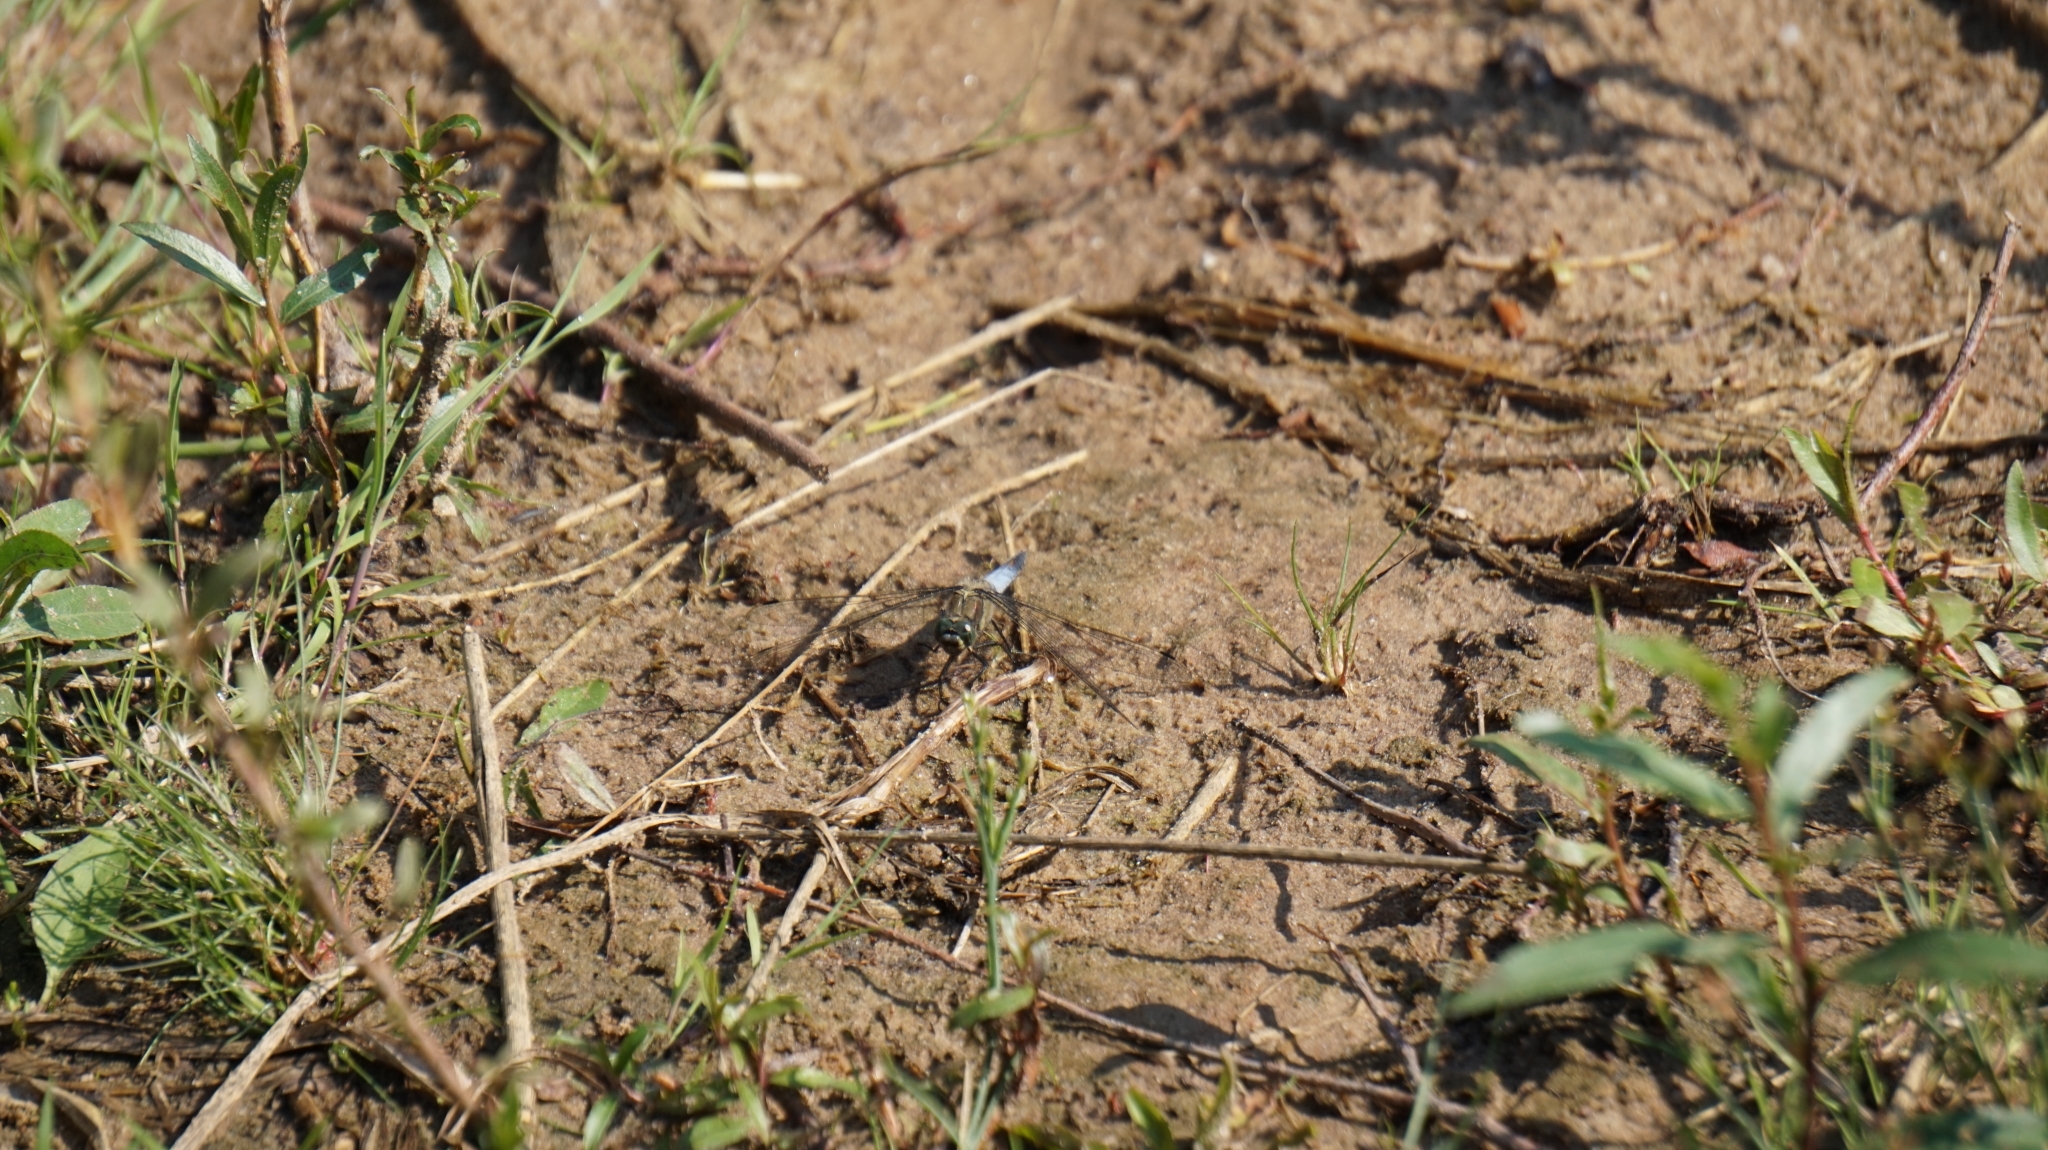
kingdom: Animalia
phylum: Arthropoda
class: Insecta
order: Odonata
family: Libellulidae
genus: Orthetrum
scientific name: Orthetrum cancellatum
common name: Black-tailed skimmer
